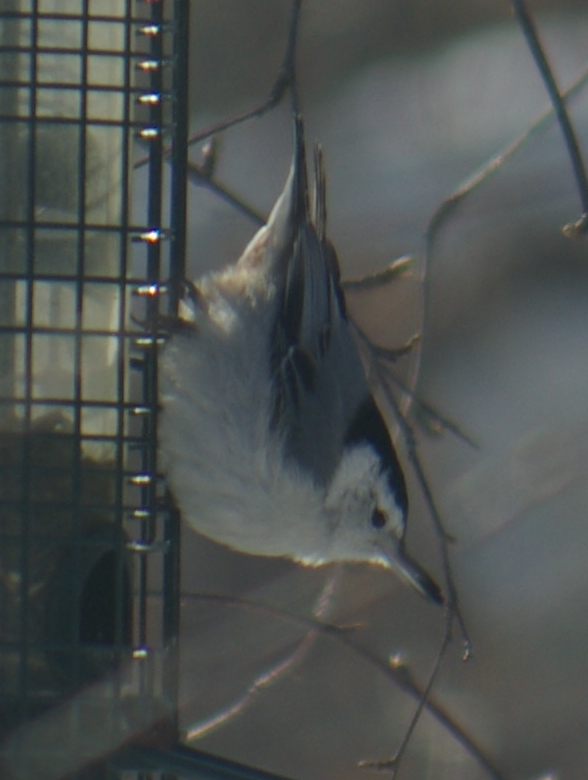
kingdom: Animalia
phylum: Chordata
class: Aves
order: Passeriformes
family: Sittidae
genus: Sitta
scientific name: Sitta carolinensis
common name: White-breasted nuthatch
